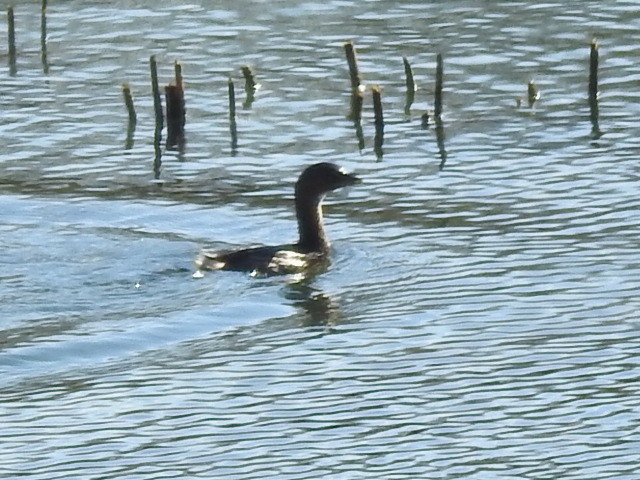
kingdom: Animalia
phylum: Chordata
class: Aves
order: Podicipediformes
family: Podicipedidae
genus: Podilymbus
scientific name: Podilymbus podiceps
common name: Pied-billed grebe
